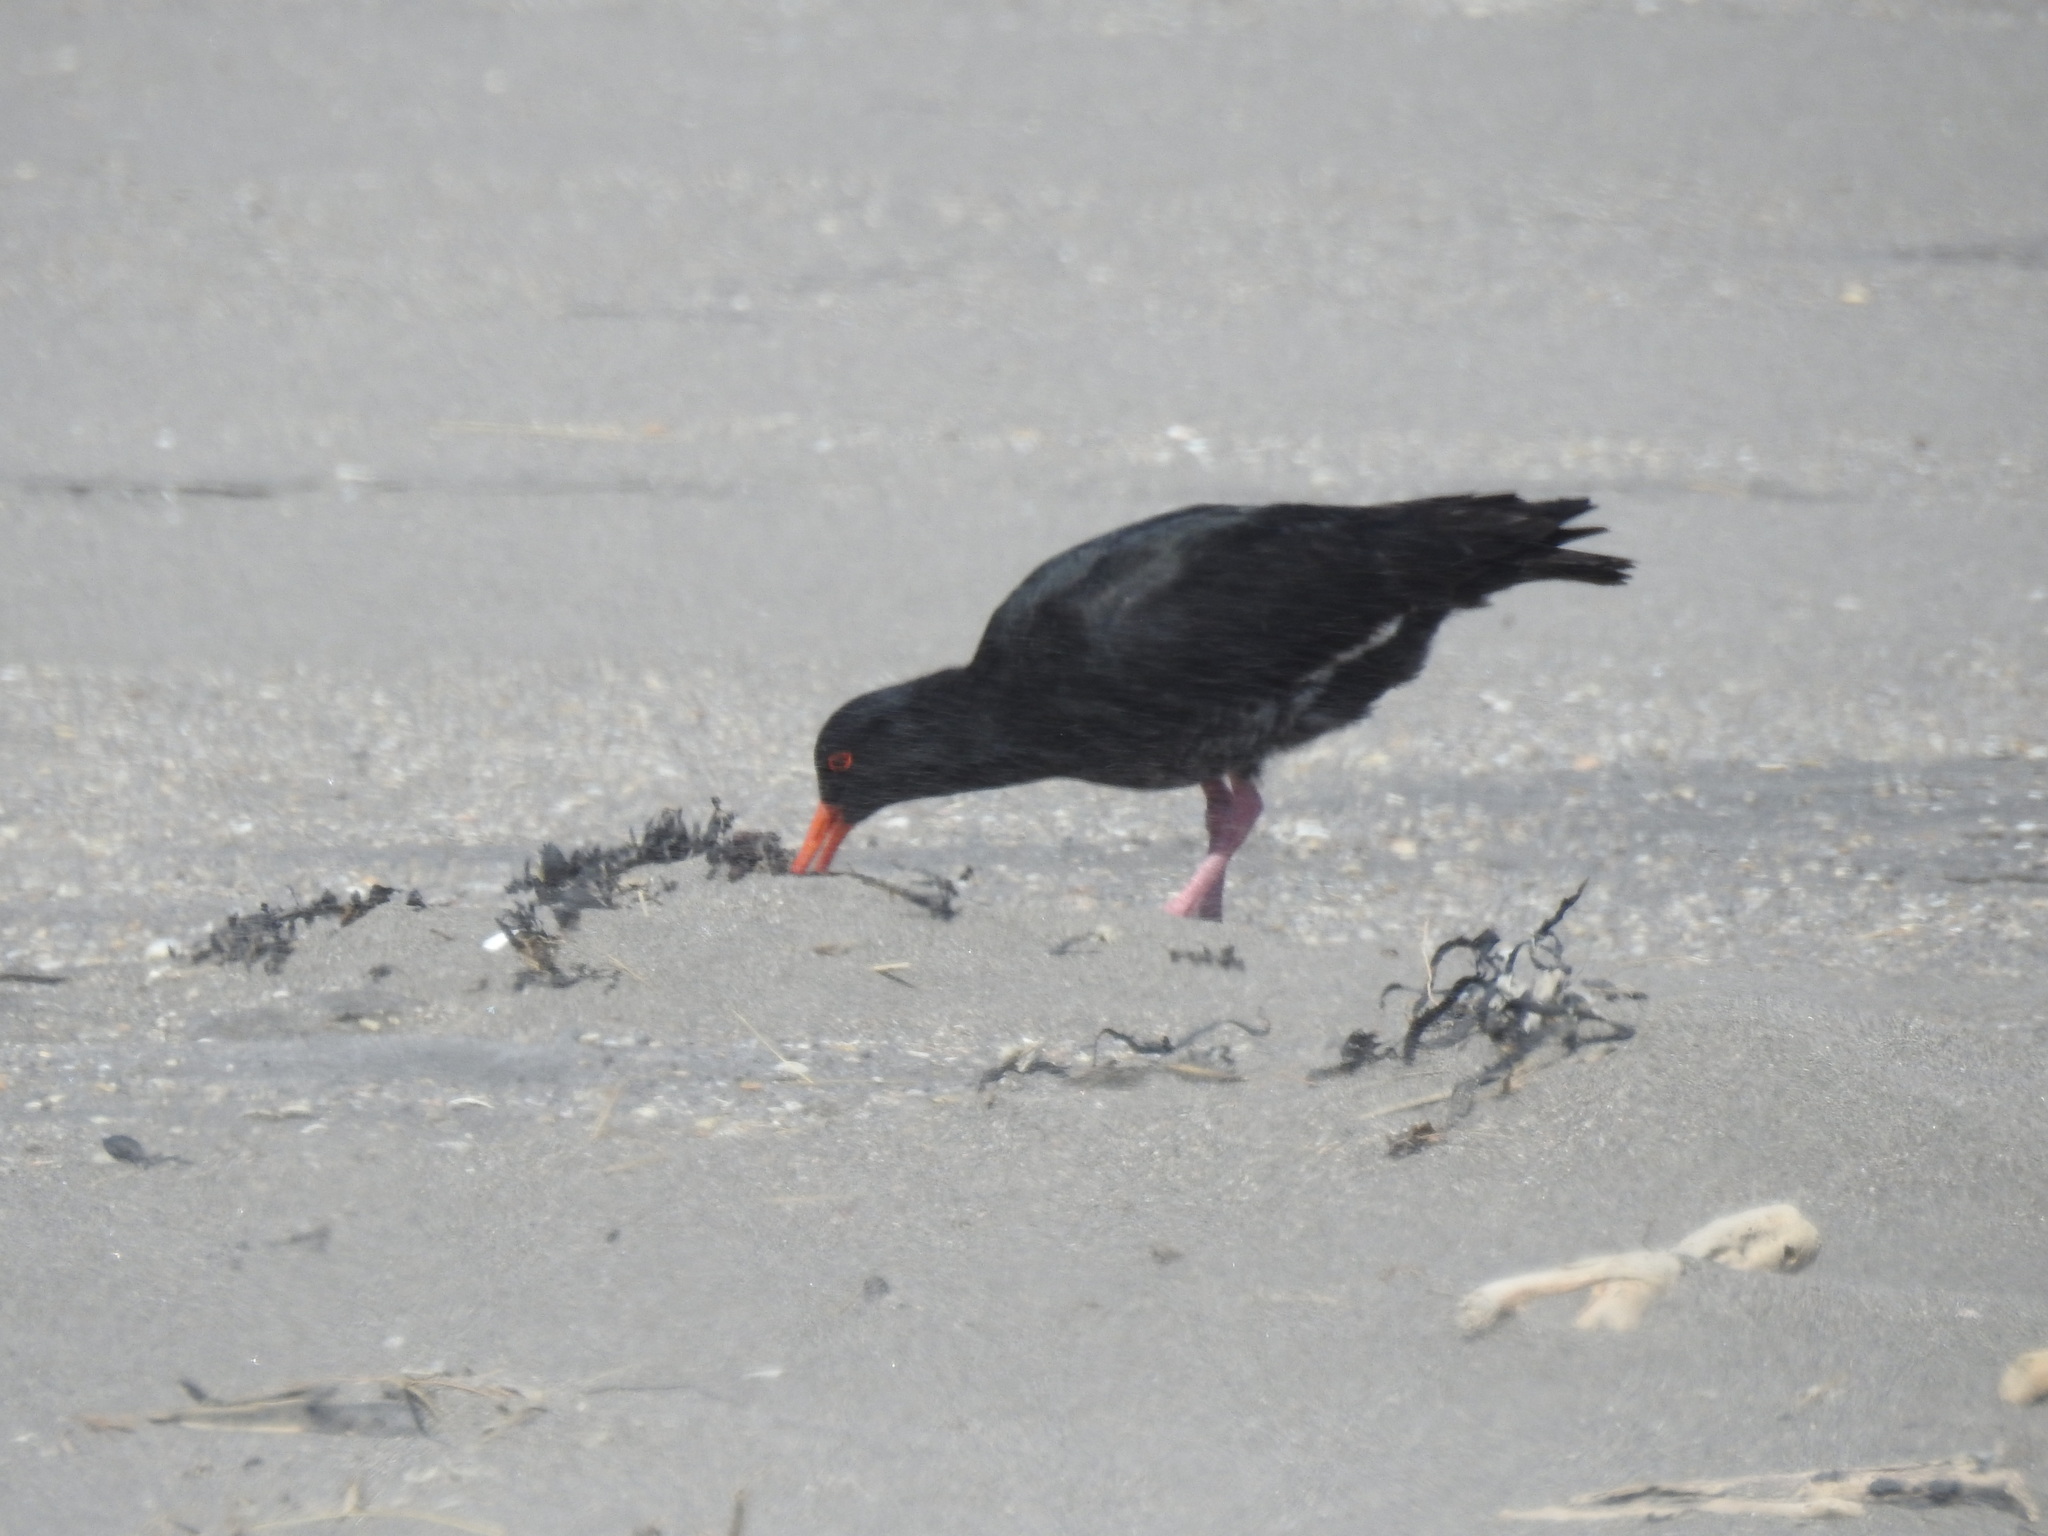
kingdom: Animalia
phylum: Chordata
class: Aves
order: Charadriiformes
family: Haematopodidae
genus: Haematopus
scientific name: Haematopus unicolor
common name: Variable oystercatcher
